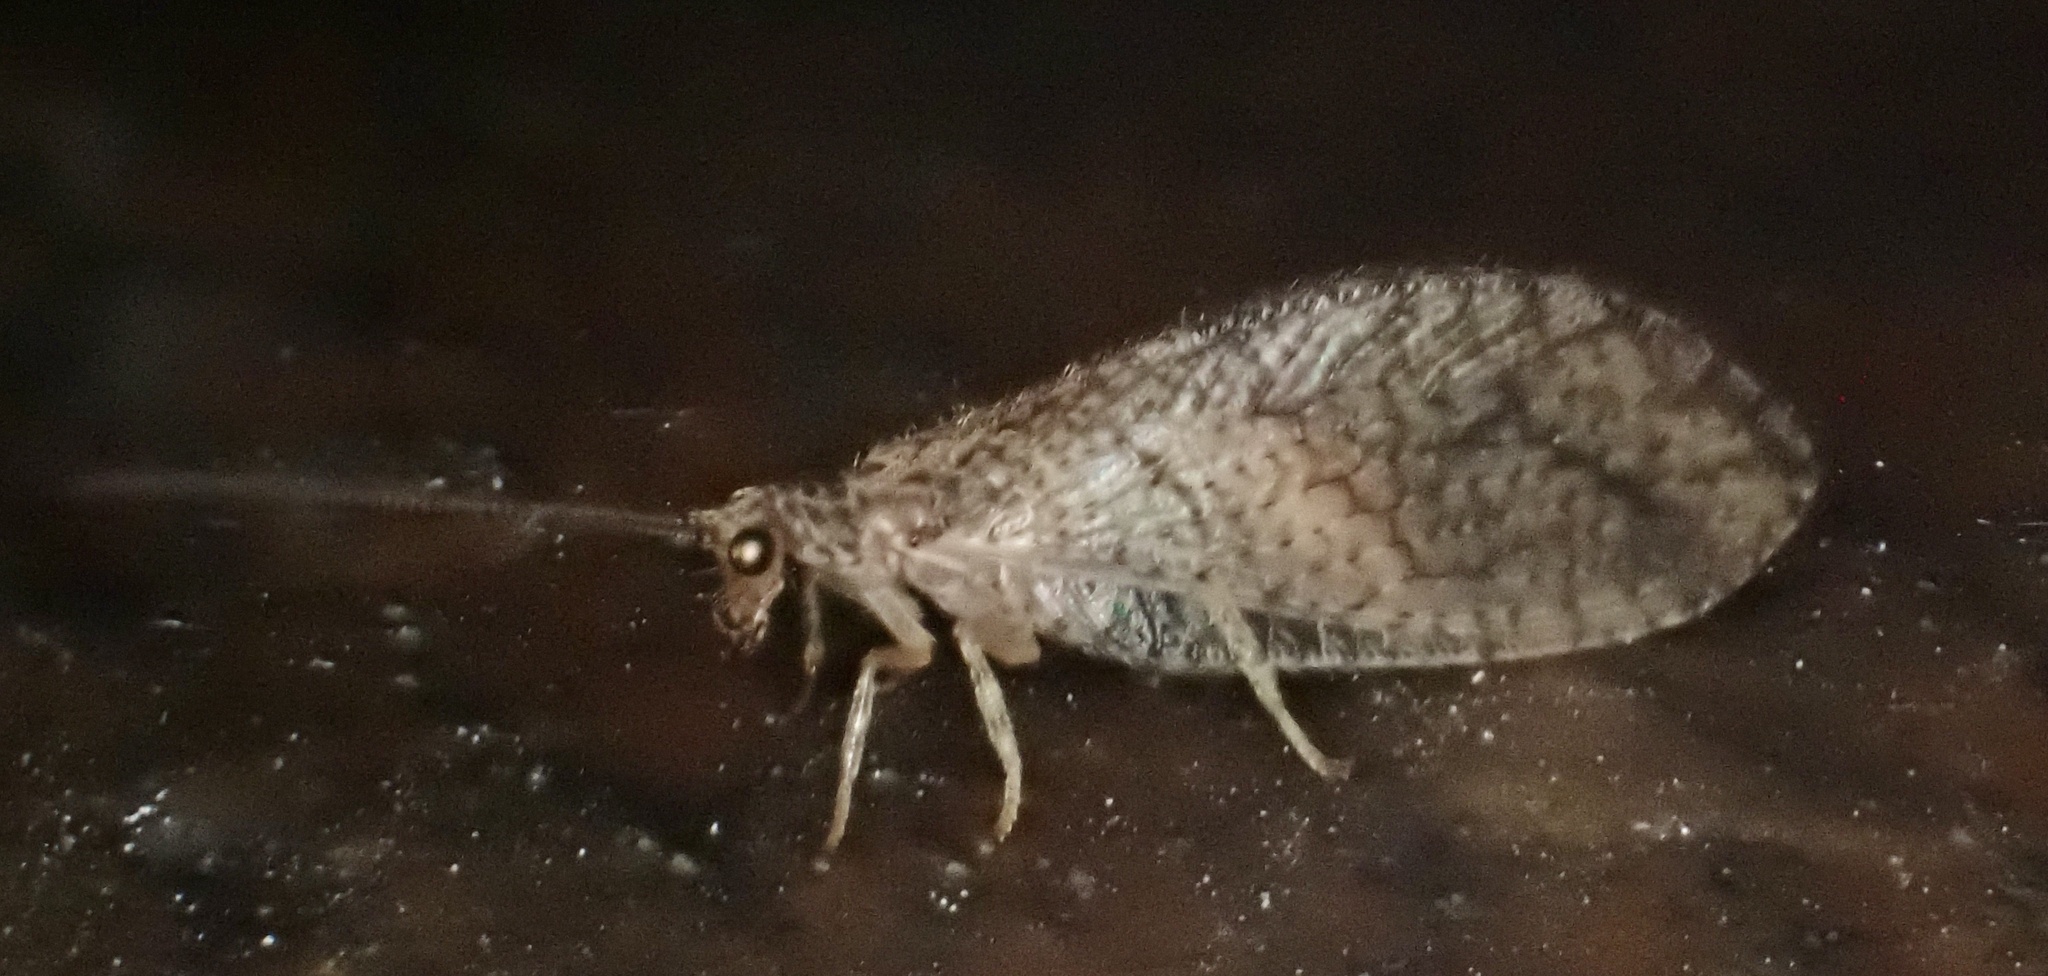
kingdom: Animalia
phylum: Arthropoda
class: Insecta
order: Neuroptera
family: Hemerobiidae
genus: Micromus
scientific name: Micromus angulatus
